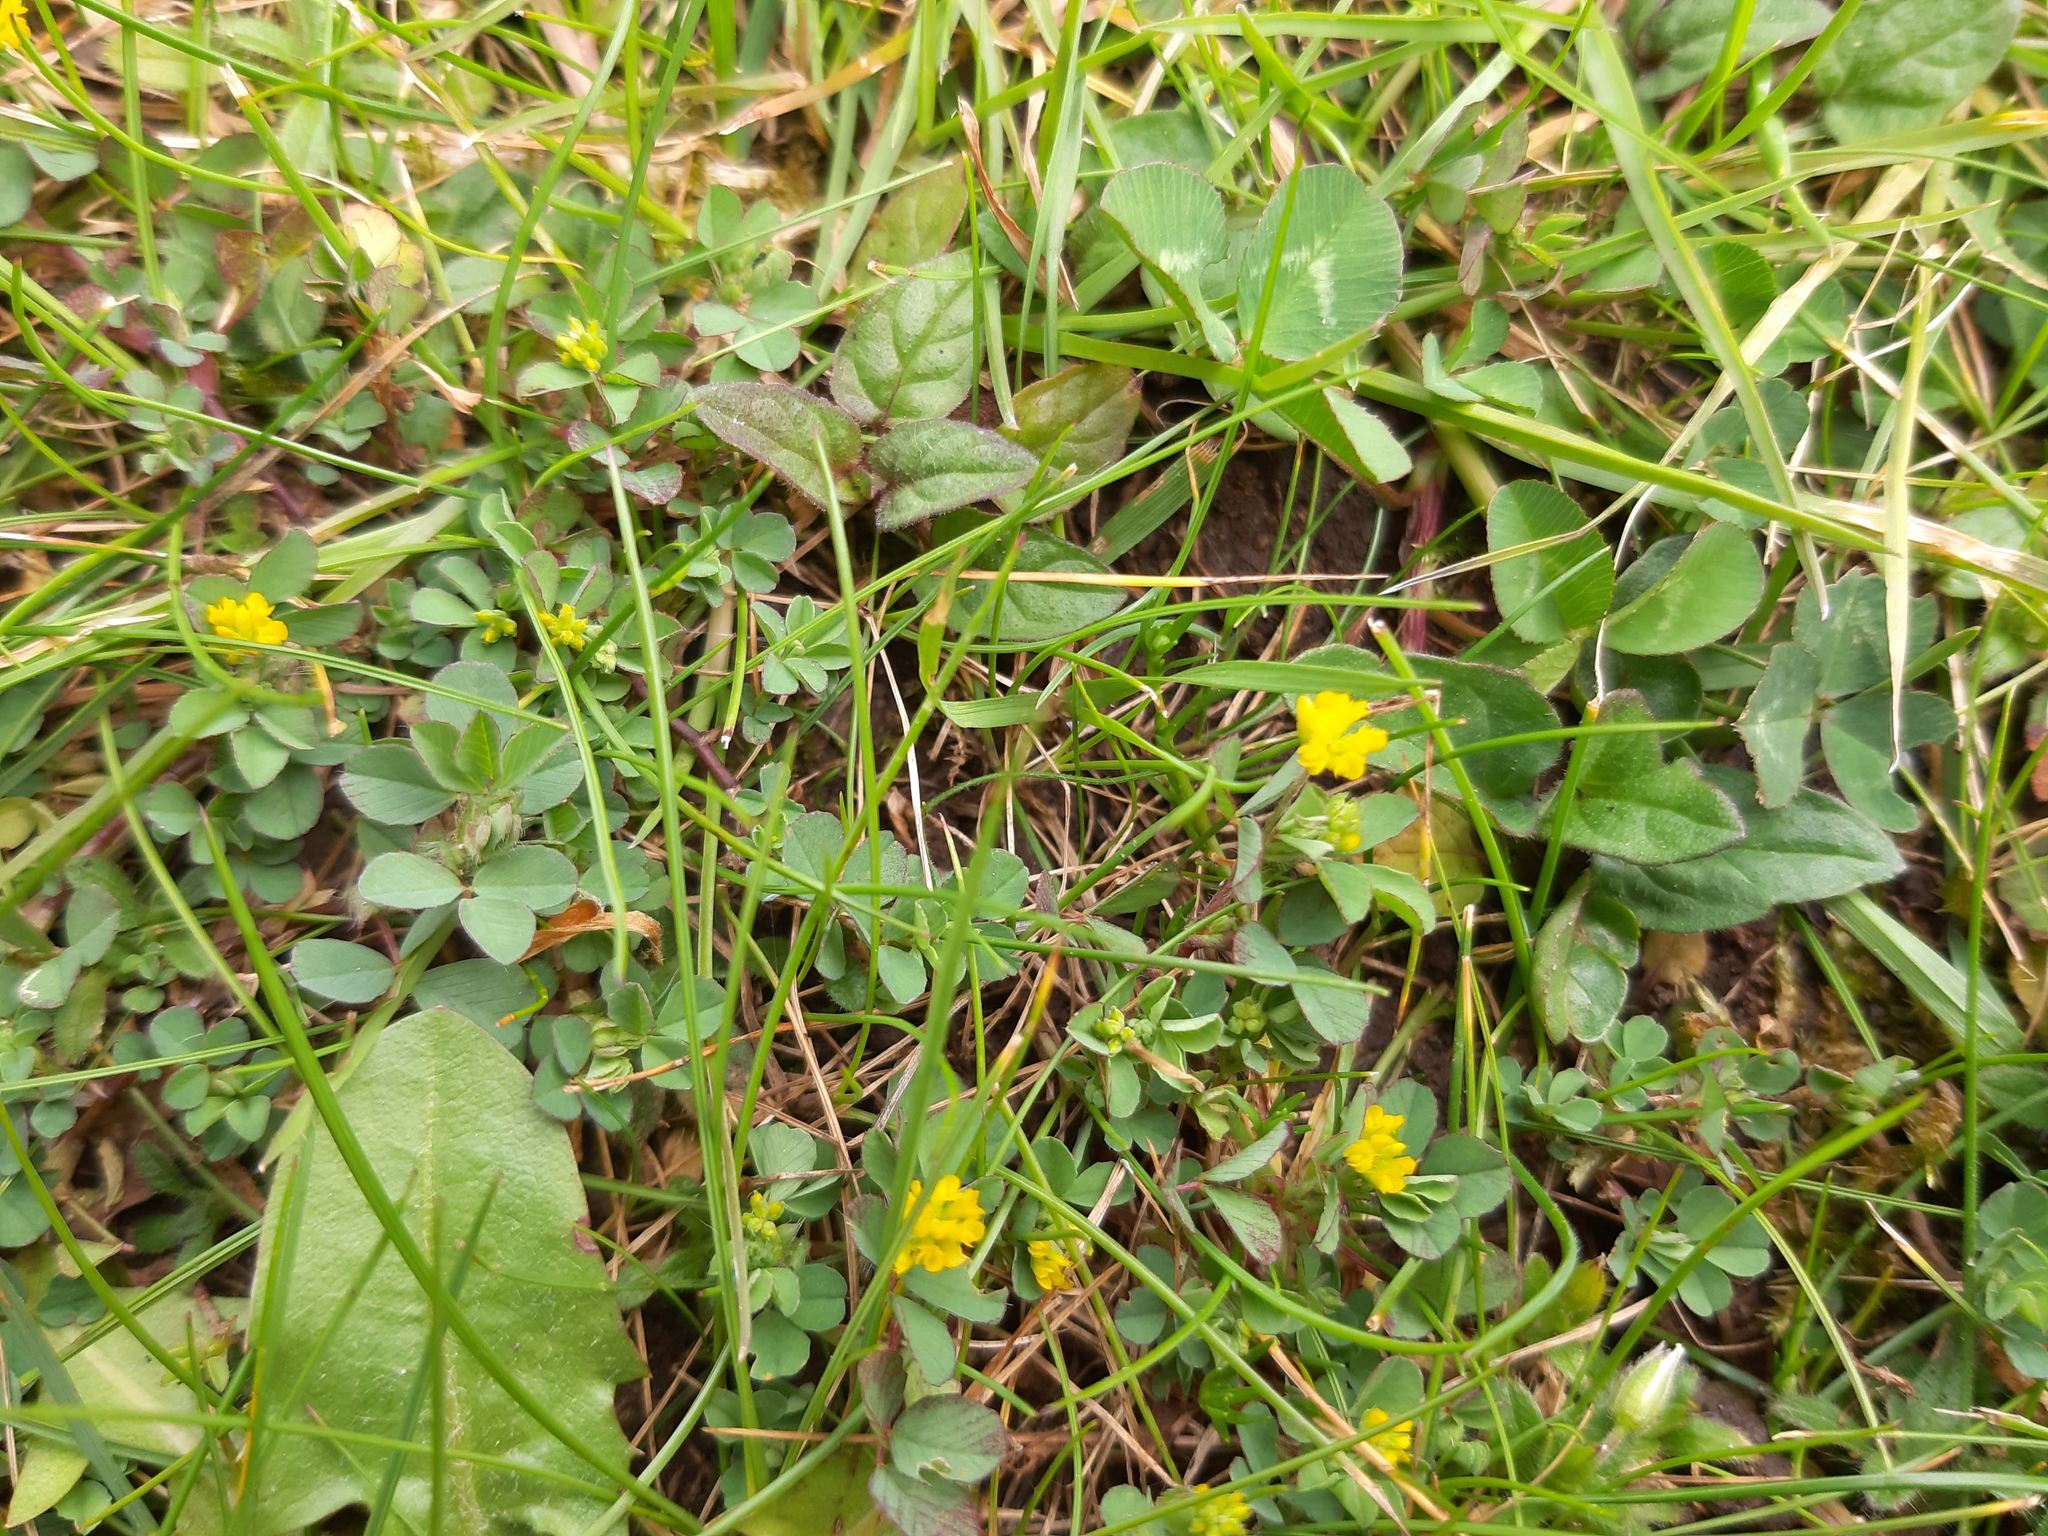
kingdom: Plantae
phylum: Tracheophyta
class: Magnoliopsida
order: Fabales
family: Fabaceae
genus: Trifolium
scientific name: Trifolium dubium
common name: Suckling clover
